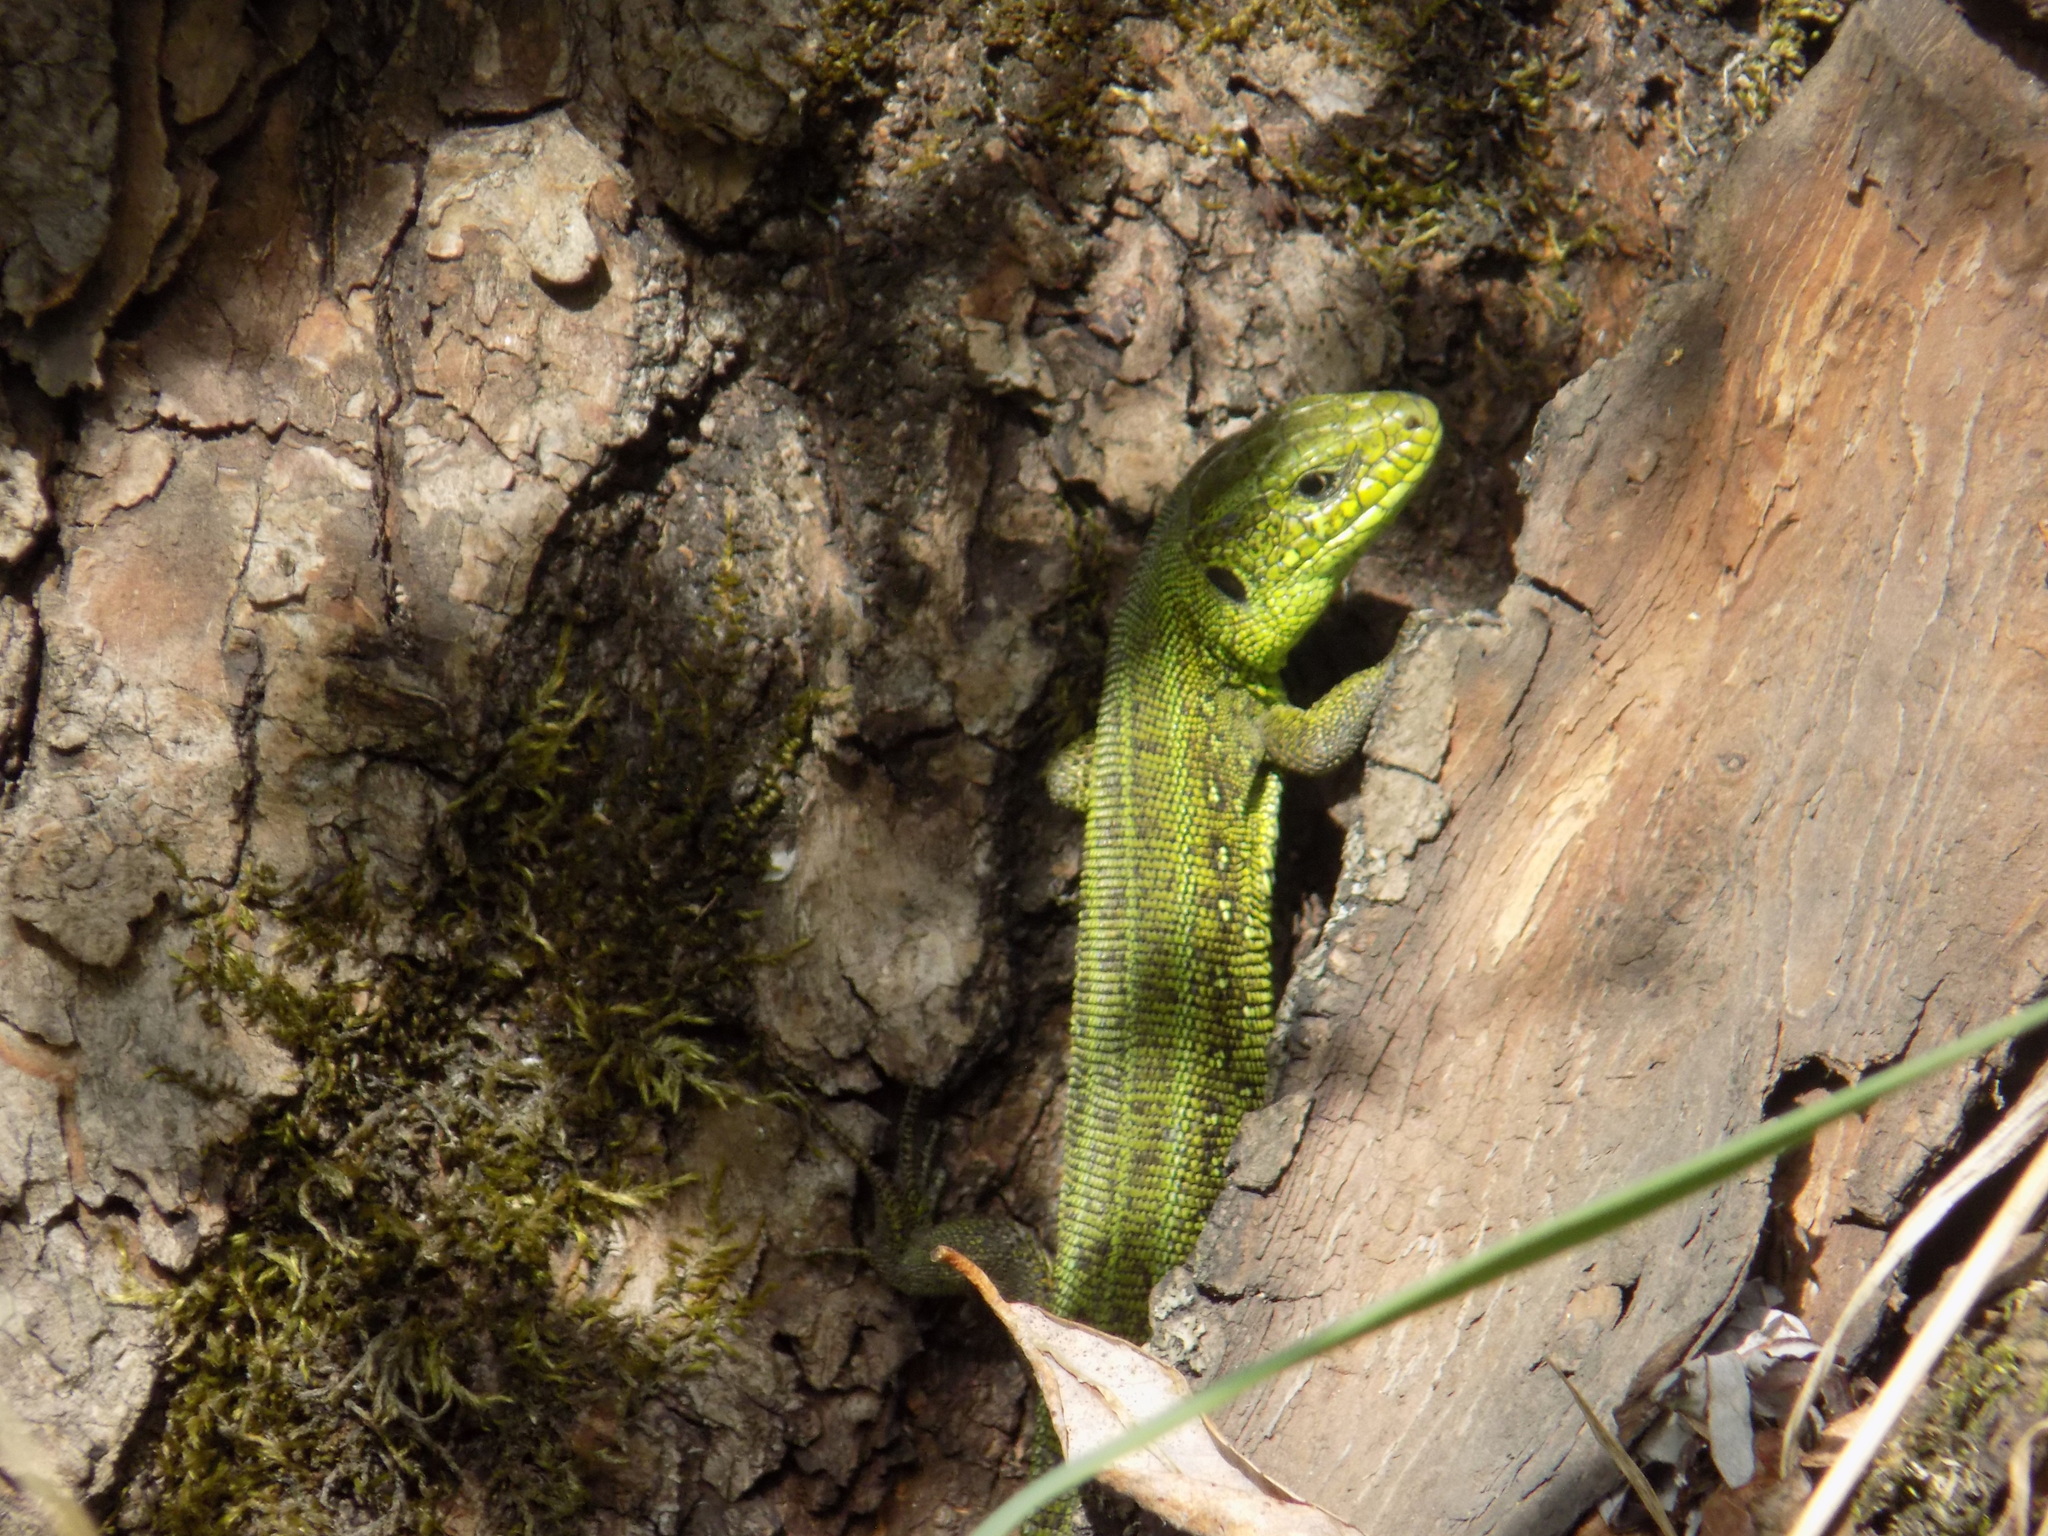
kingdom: Animalia
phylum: Chordata
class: Squamata
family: Lacertidae
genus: Lacerta
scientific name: Lacerta agilis
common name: Sand lizard
